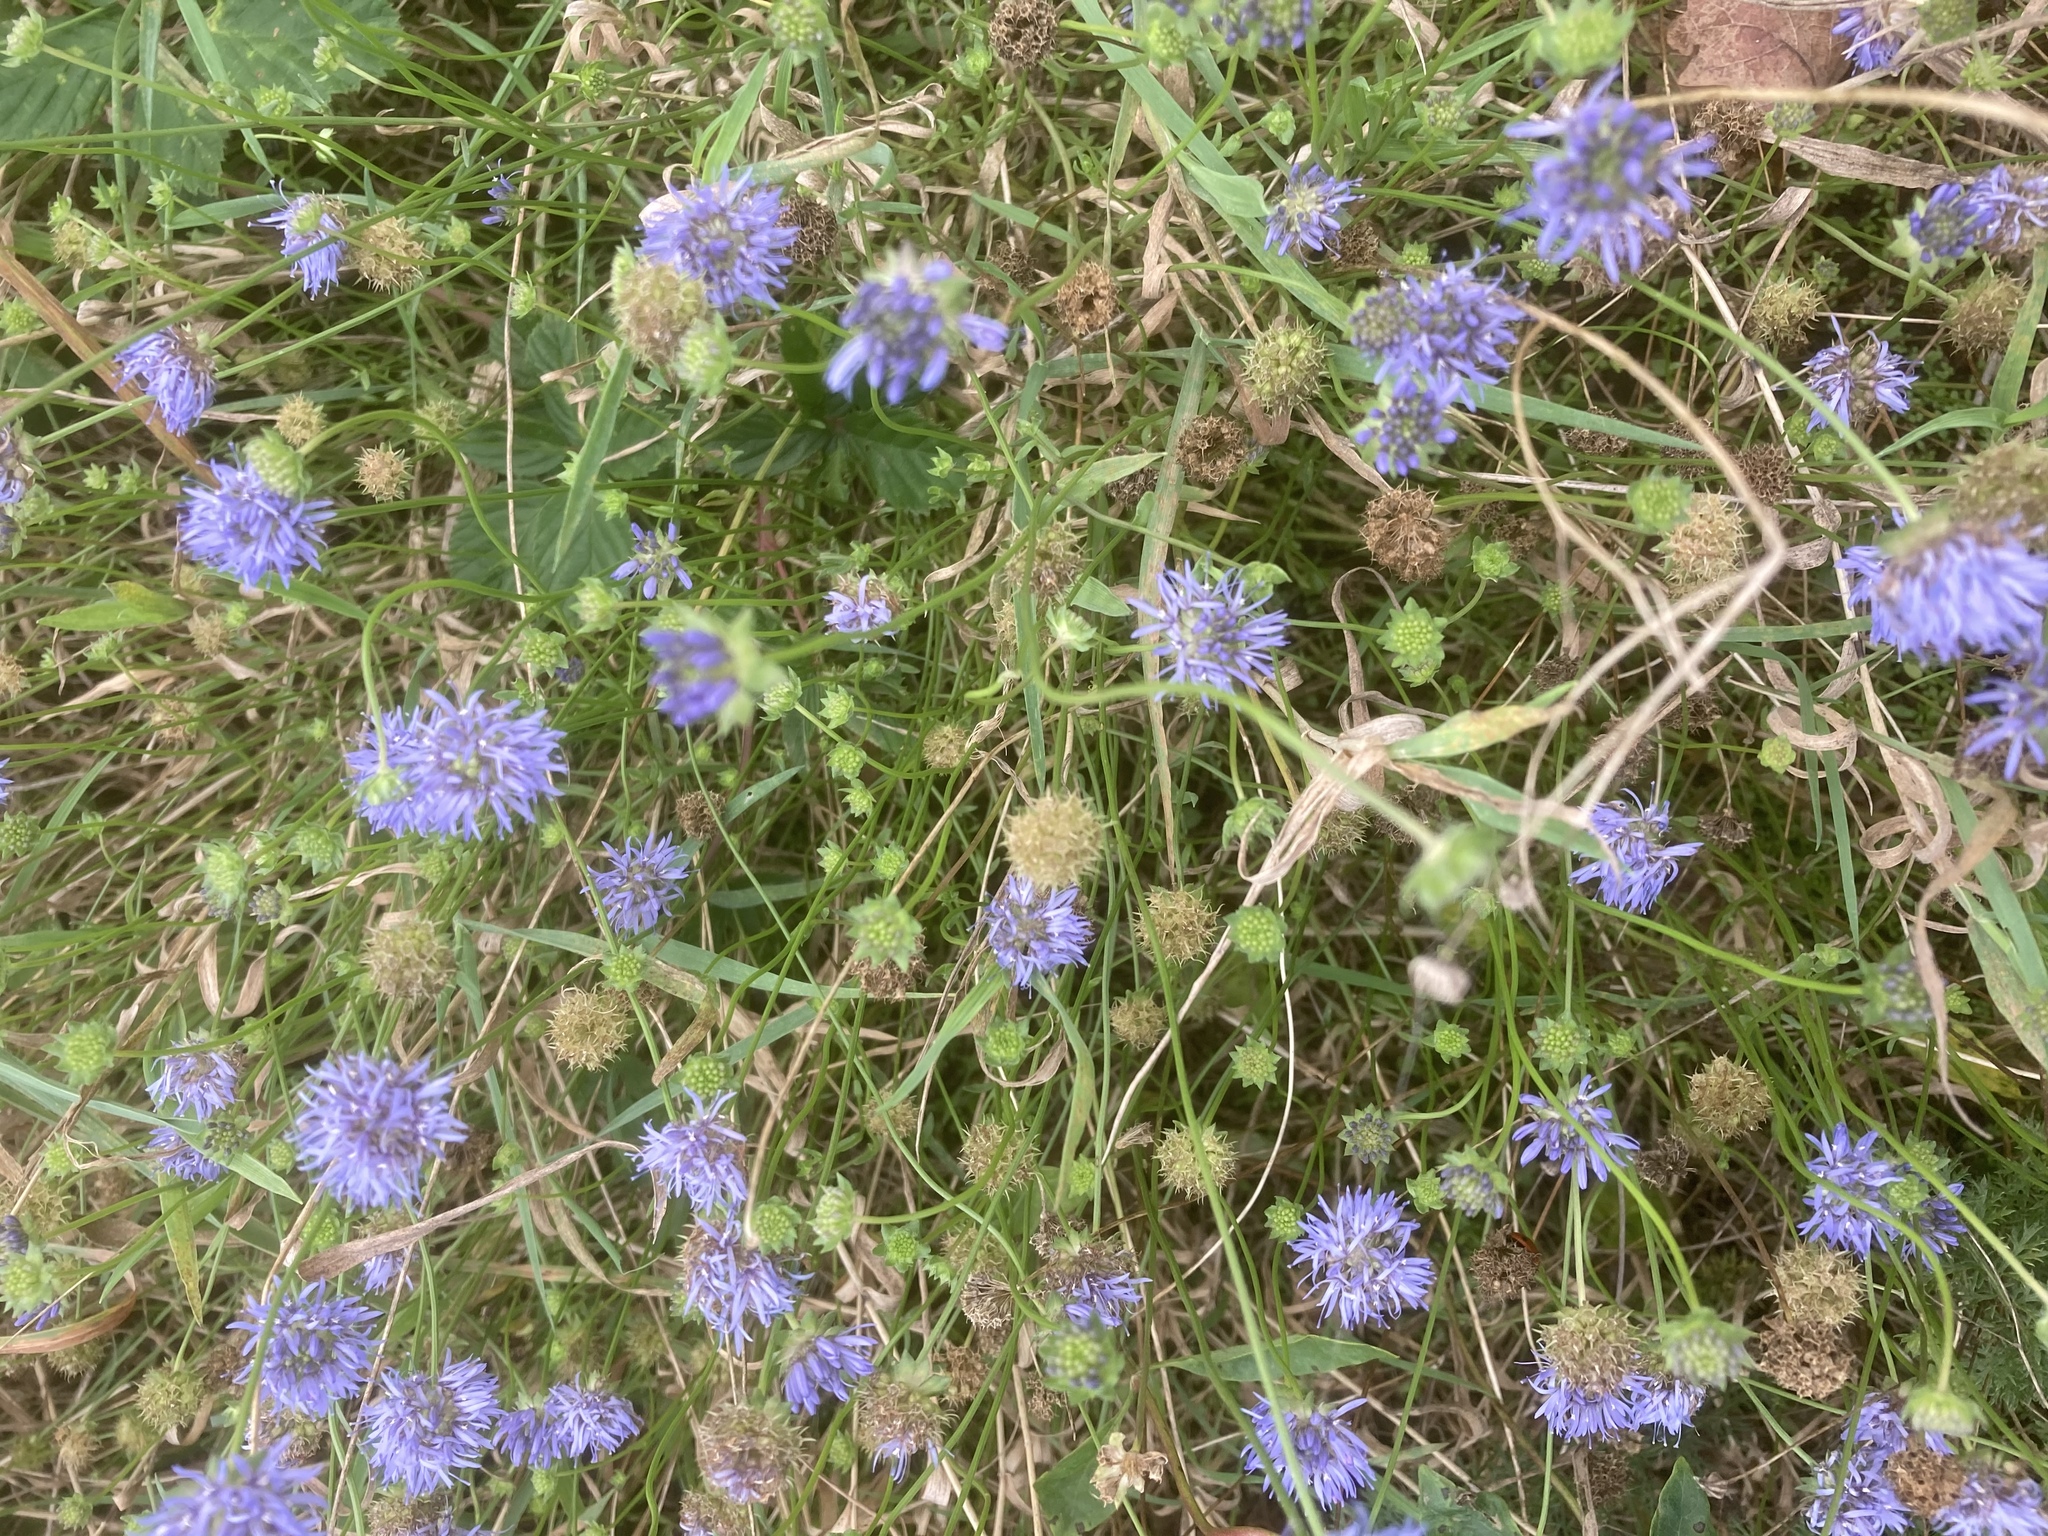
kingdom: Plantae
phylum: Tracheophyta
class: Magnoliopsida
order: Asterales
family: Campanulaceae
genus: Jasione
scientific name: Jasione montana
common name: Sheep's-bit
